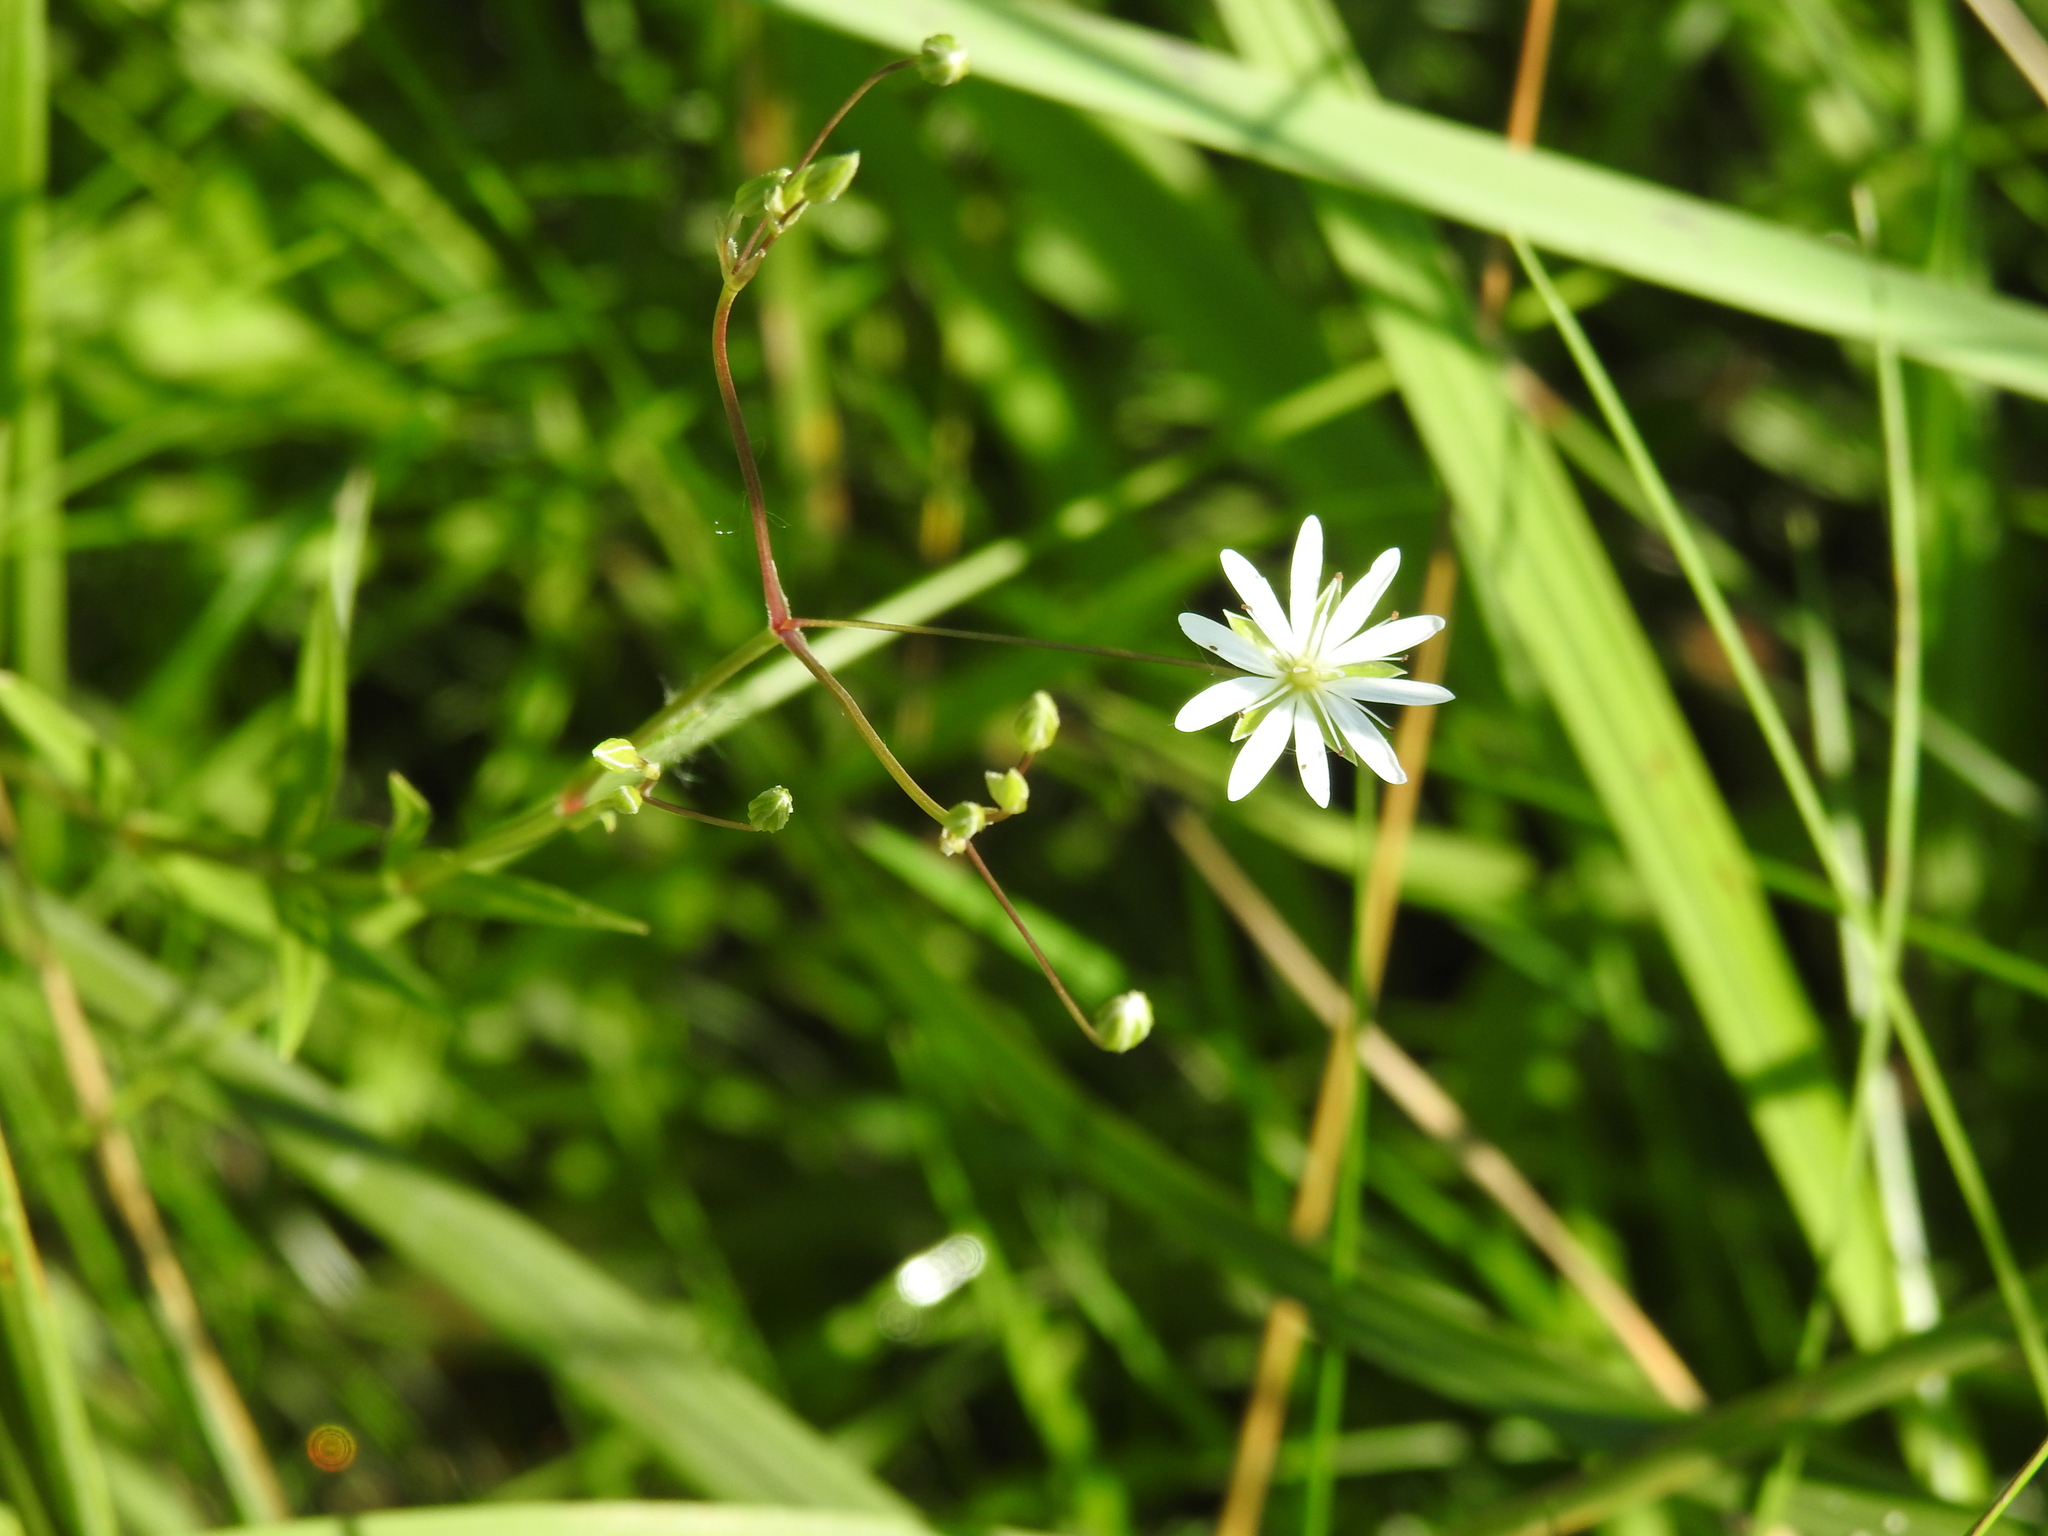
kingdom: Plantae
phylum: Tracheophyta
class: Magnoliopsida
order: Caryophyllales
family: Caryophyllaceae
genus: Stellaria
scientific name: Stellaria graminea
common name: Grass-like starwort
